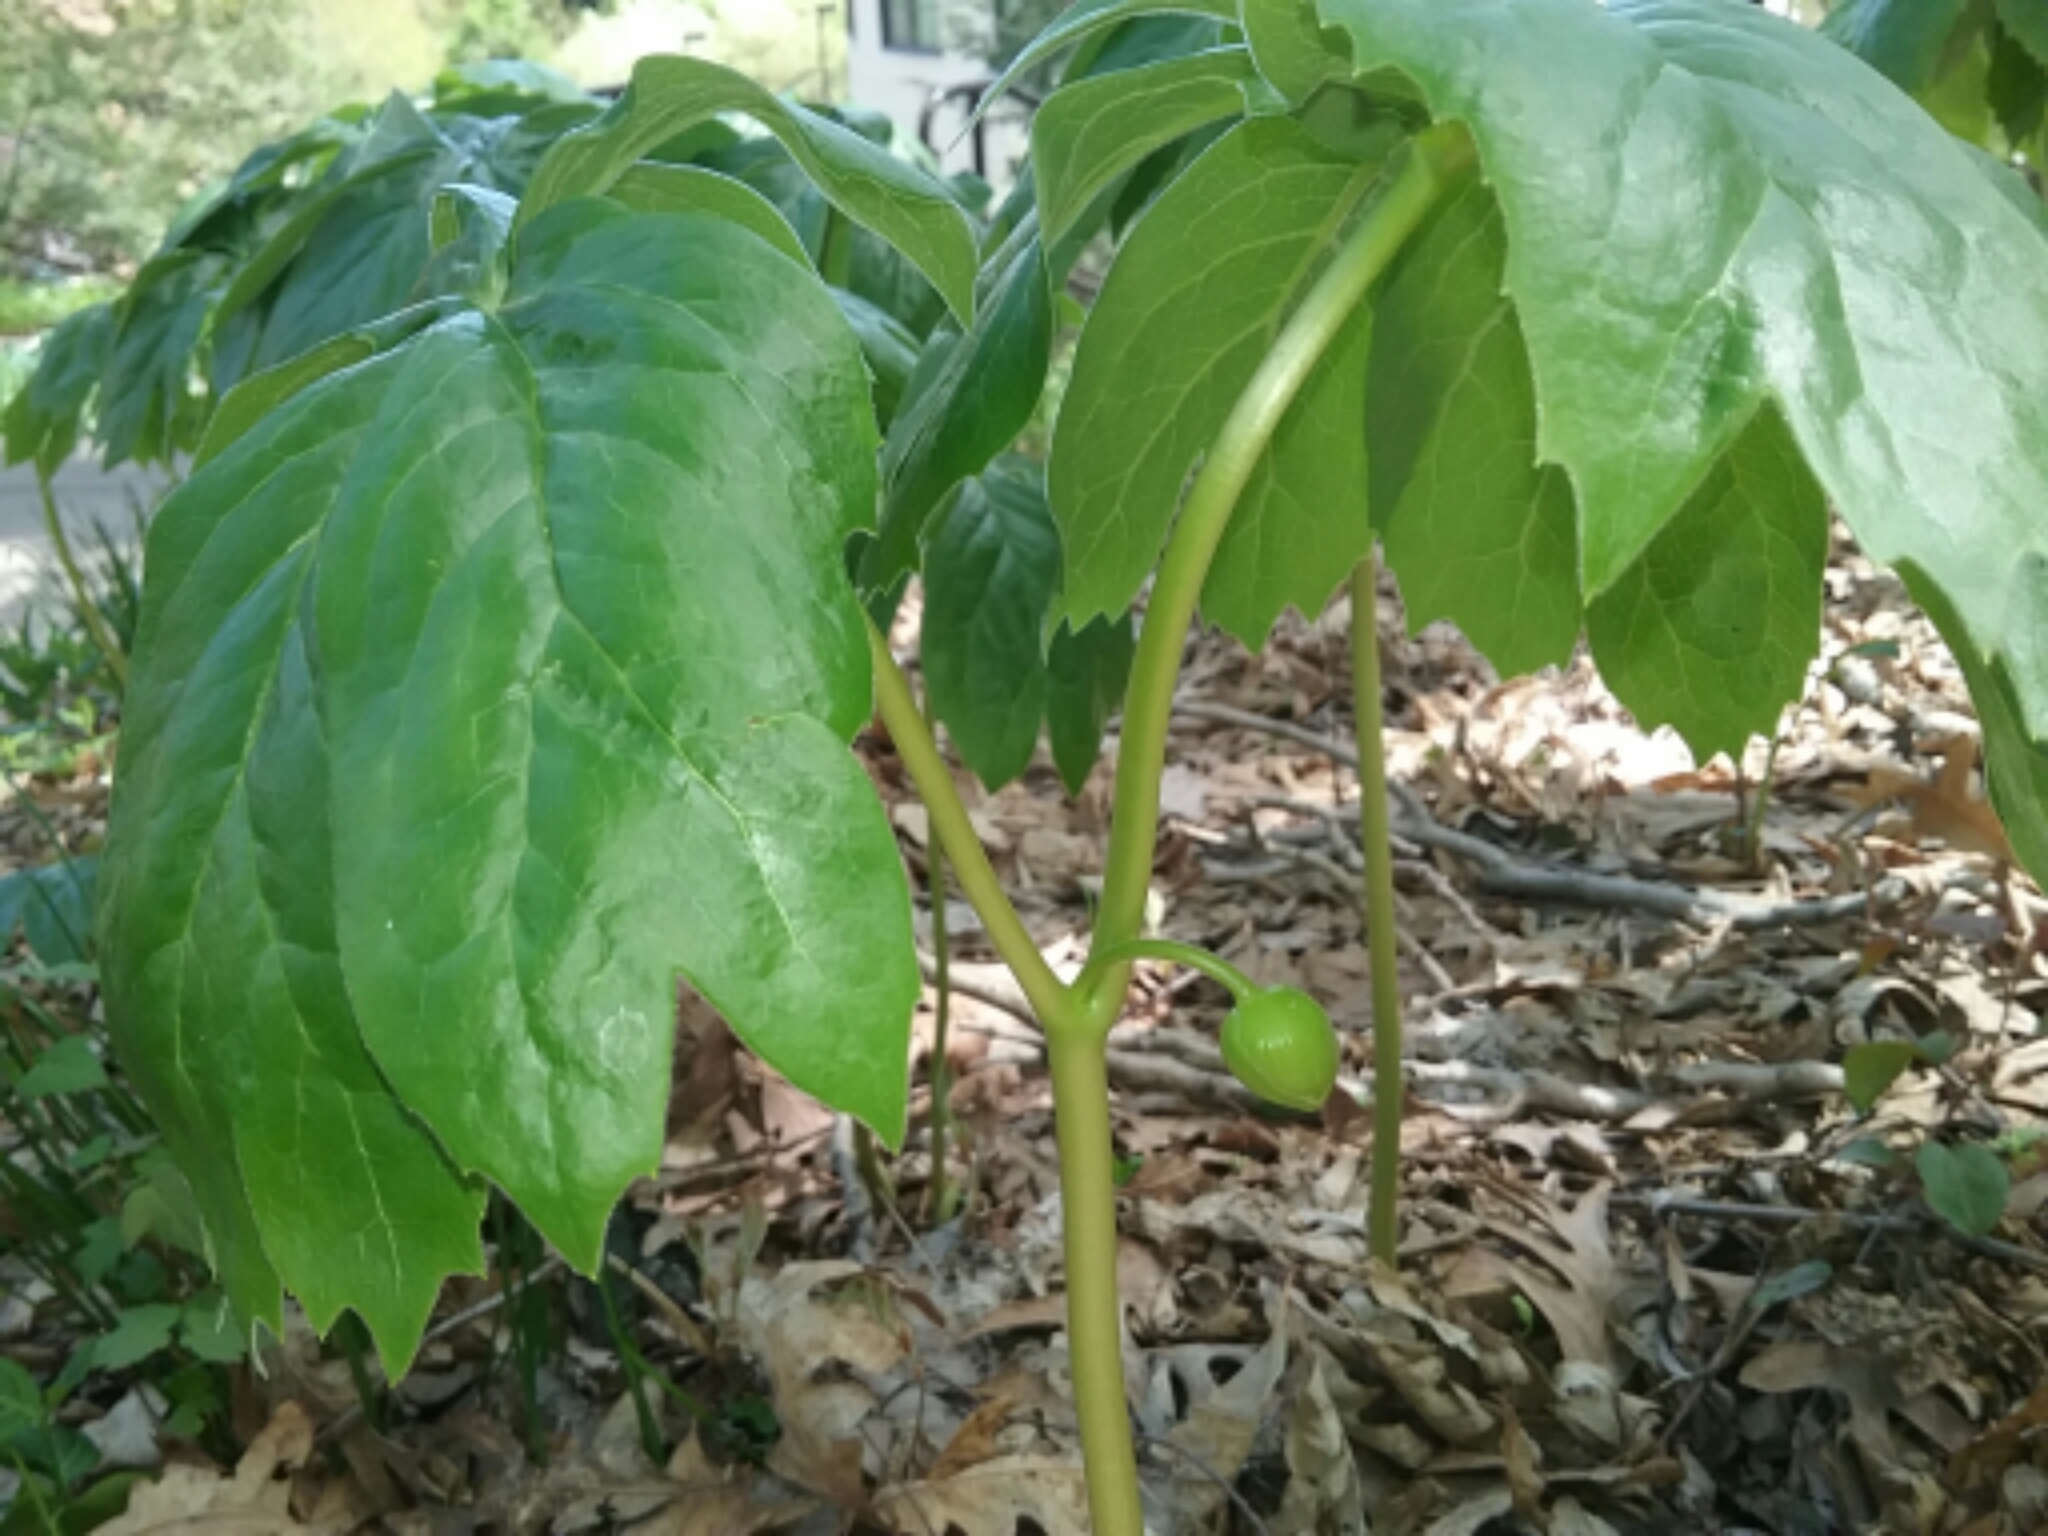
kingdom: Plantae
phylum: Tracheophyta
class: Magnoliopsida
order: Ranunculales
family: Berberidaceae
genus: Podophyllum
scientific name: Podophyllum peltatum
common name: Wild mandrake
